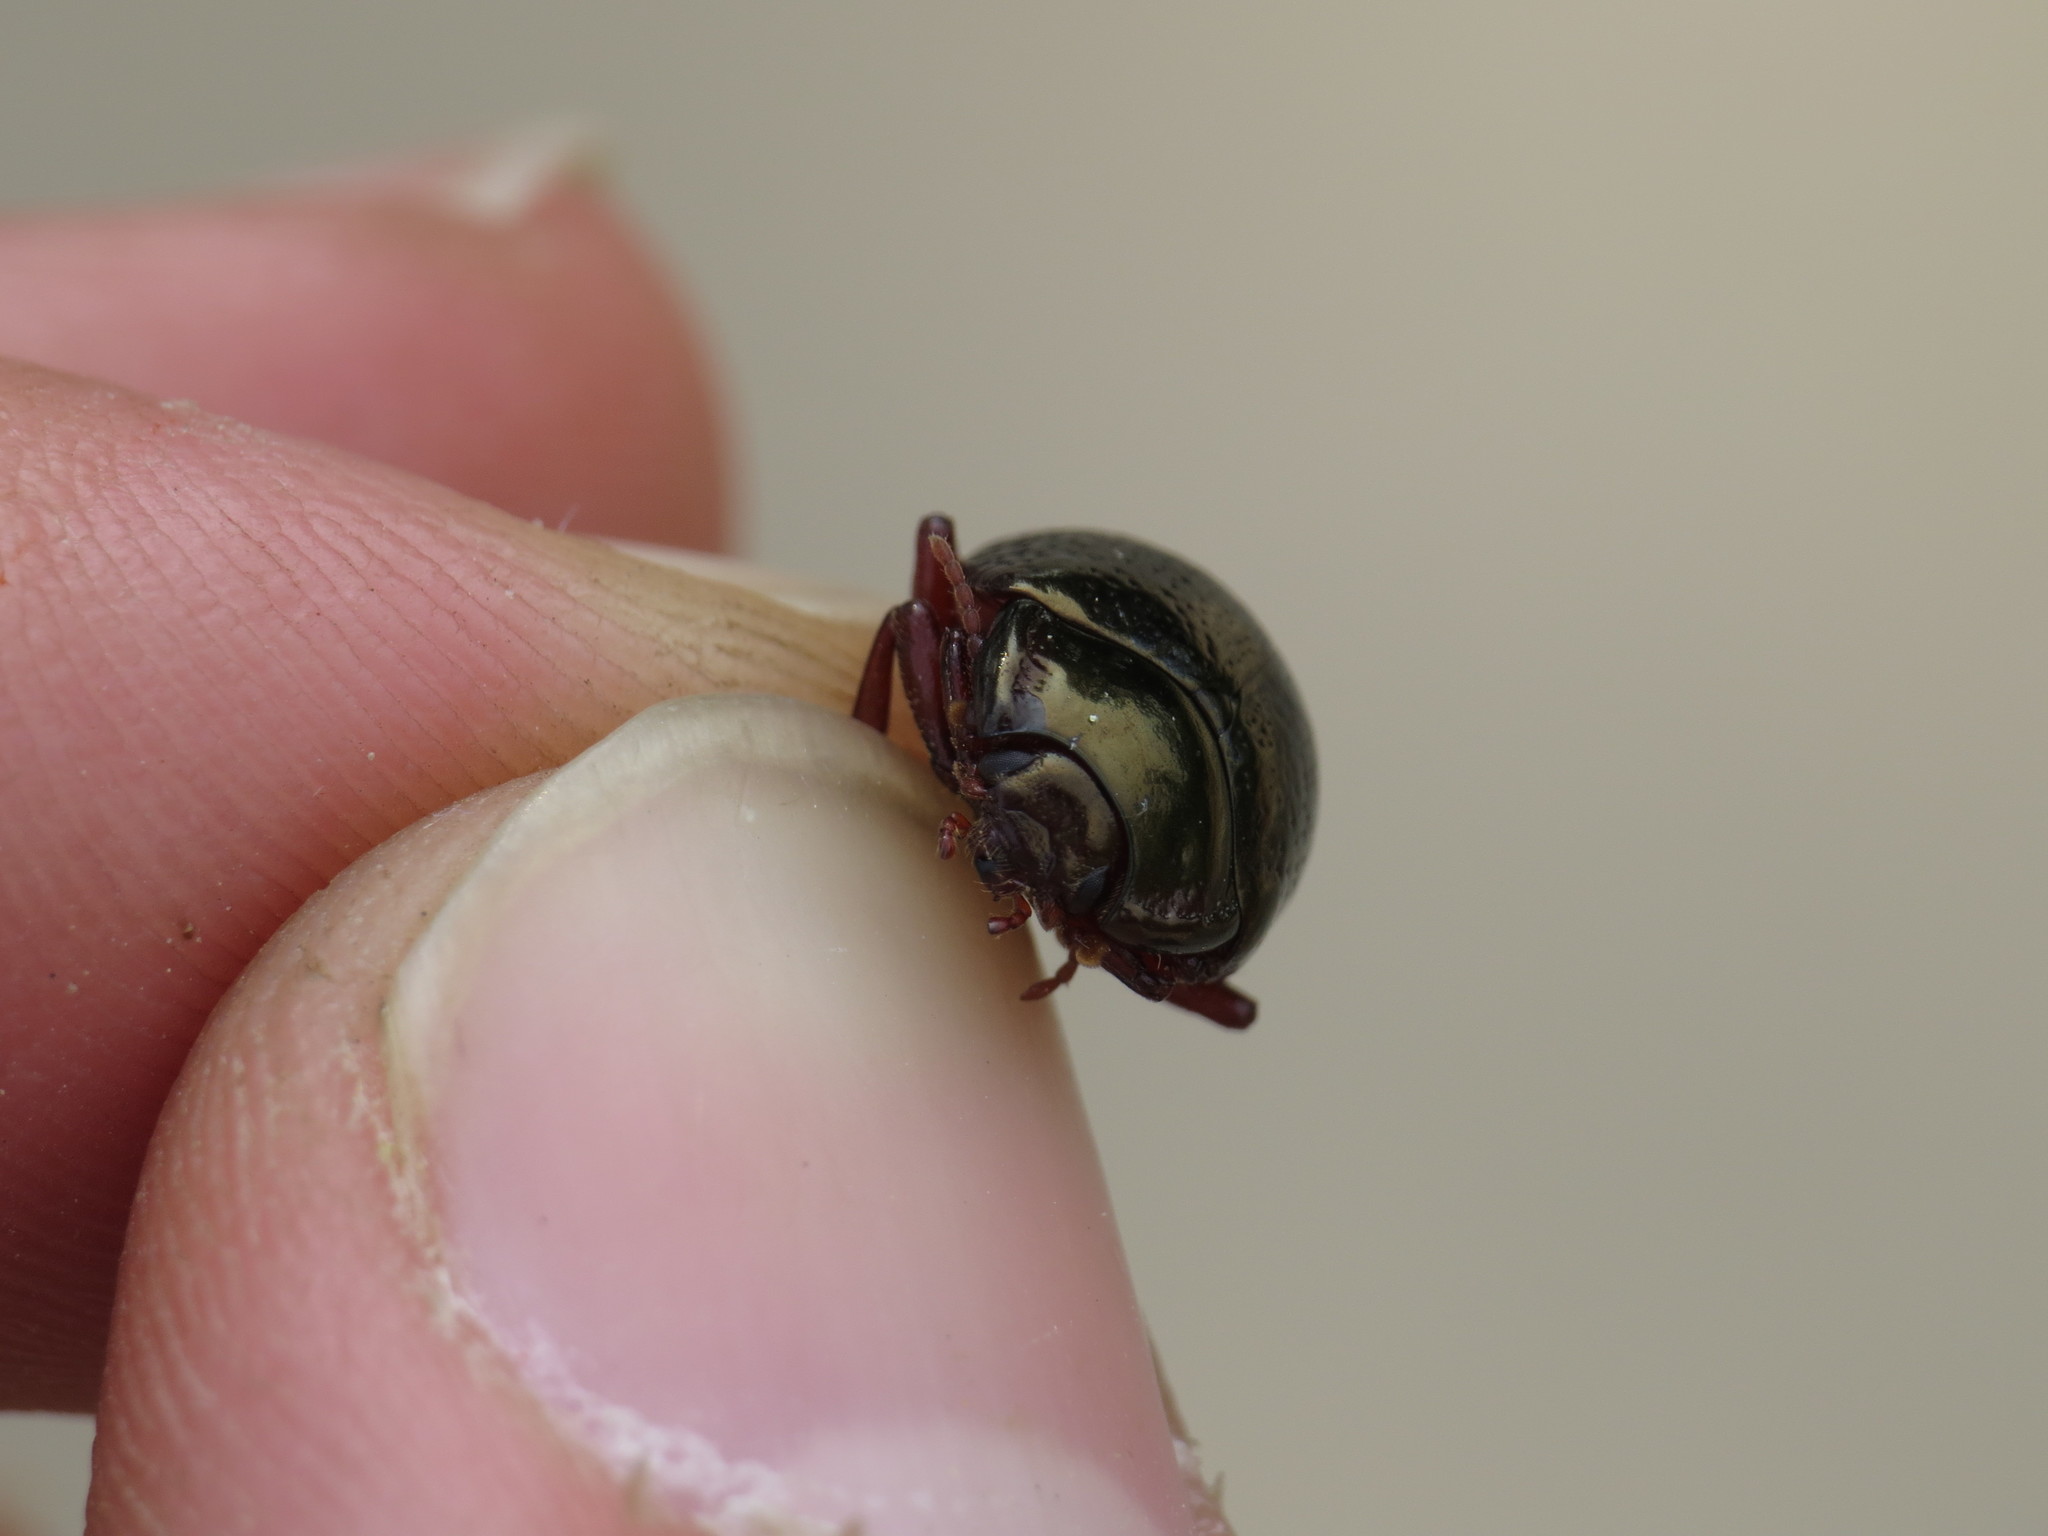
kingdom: Animalia
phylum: Arthropoda
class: Insecta
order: Coleoptera
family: Chrysomelidae
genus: Chrysolina
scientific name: Chrysolina bankii
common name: Leaf beetle
